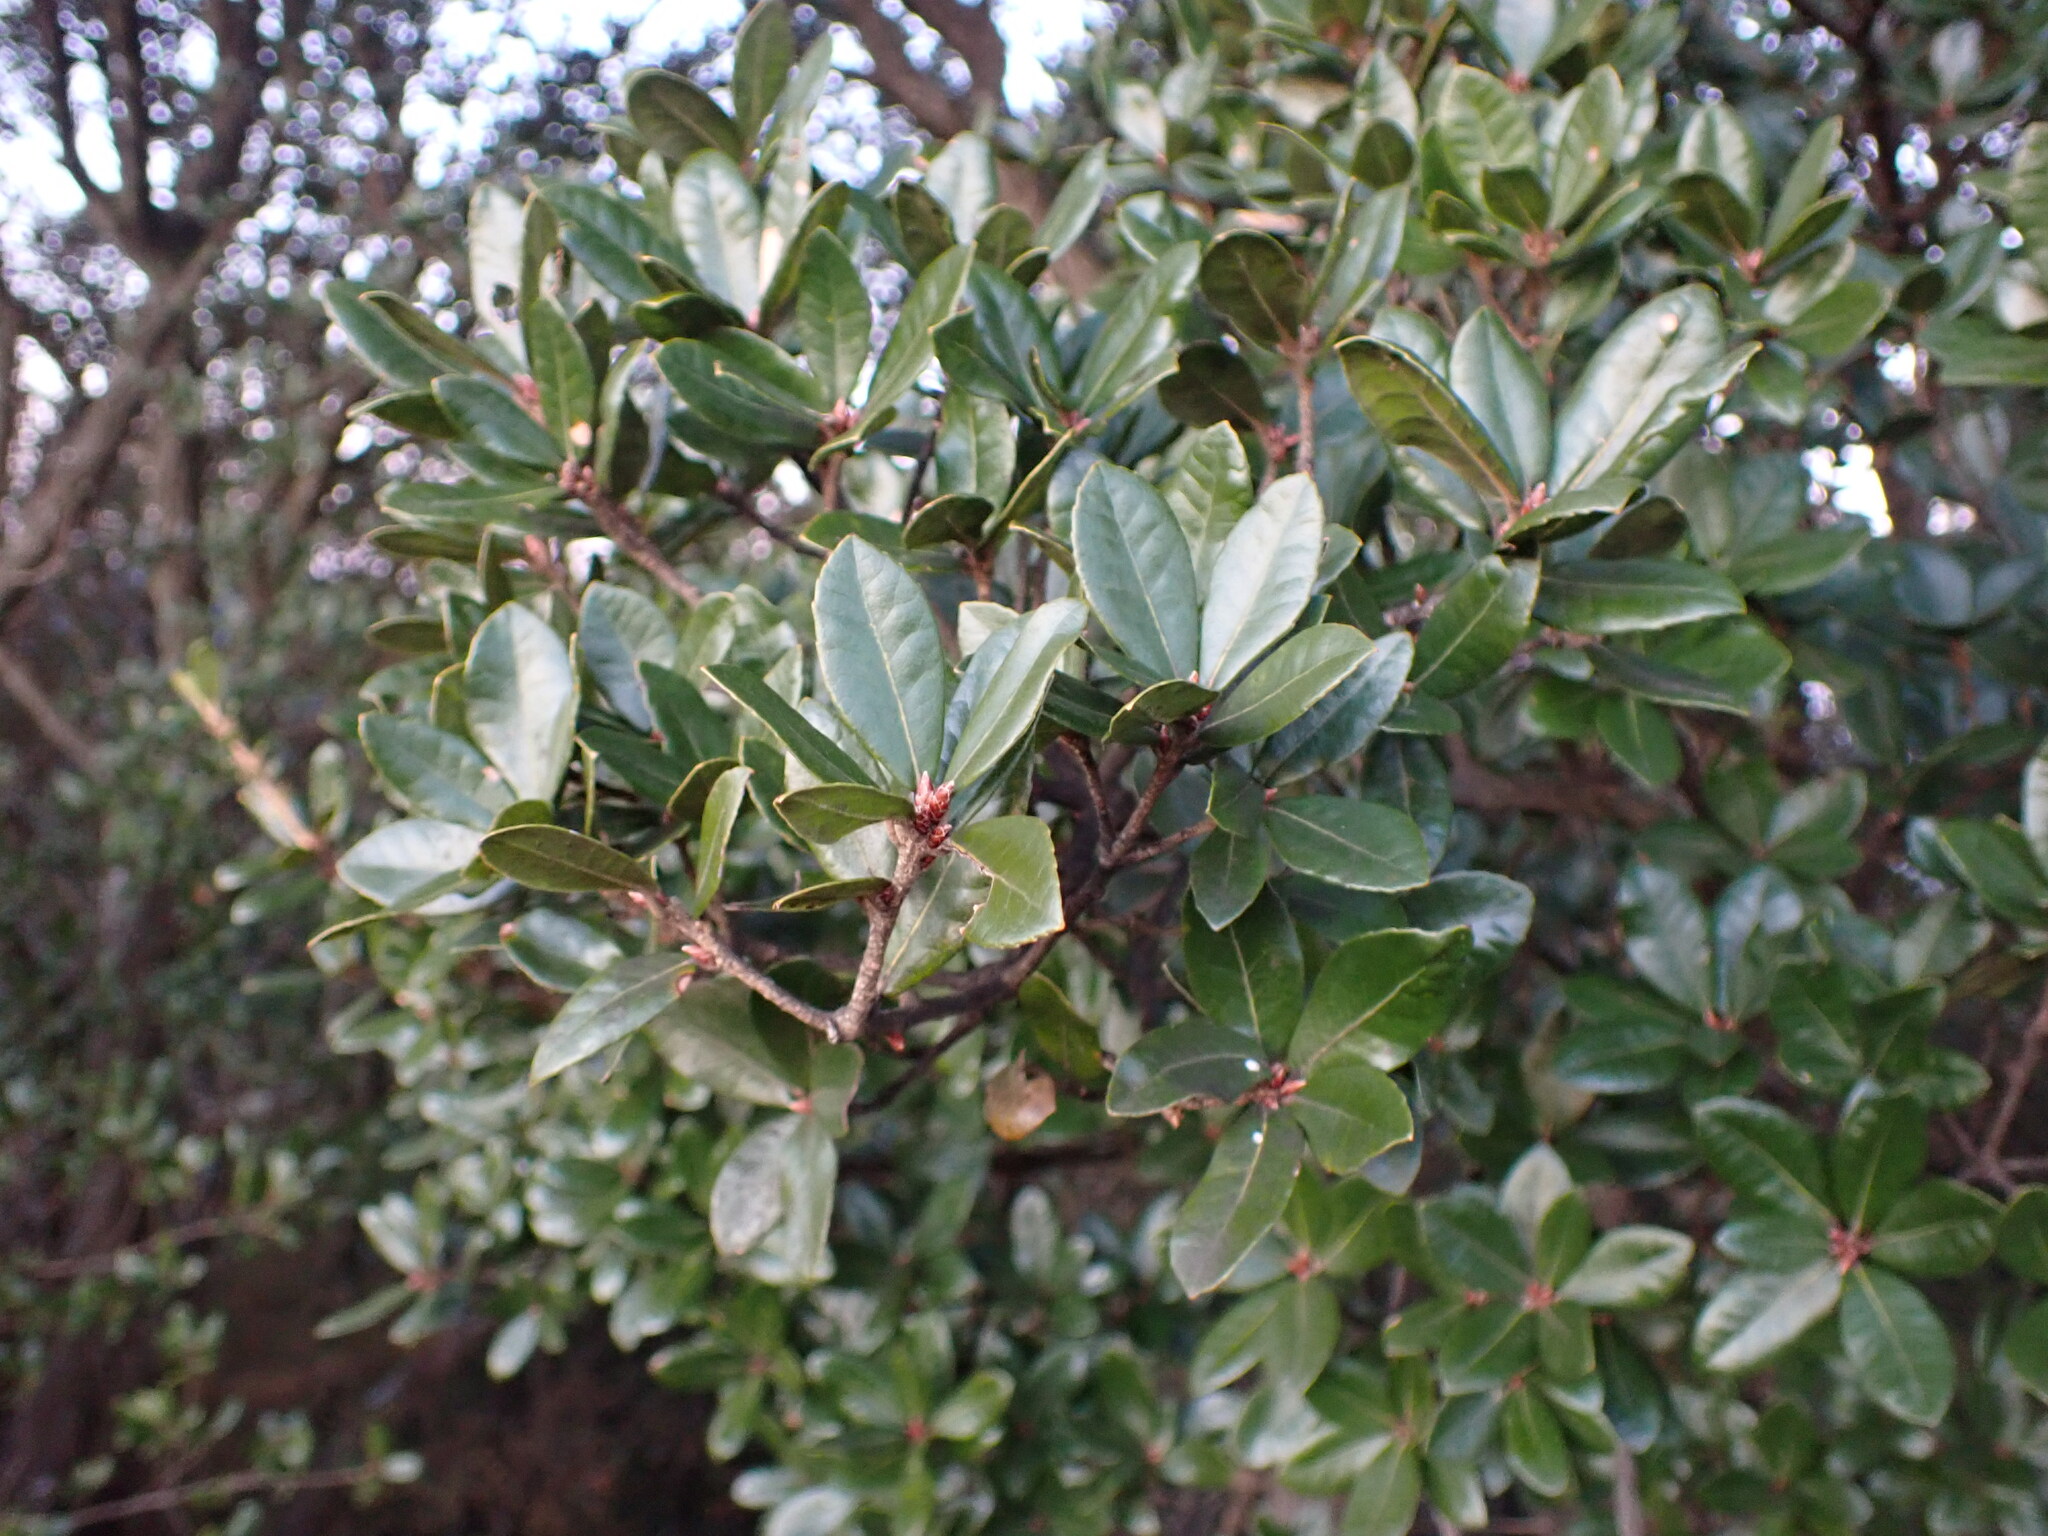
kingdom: Plantae
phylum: Tracheophyta
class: Magnoliopsida
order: Fagales
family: Fagaceae
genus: Quercus
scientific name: Quercus phillyreoides
